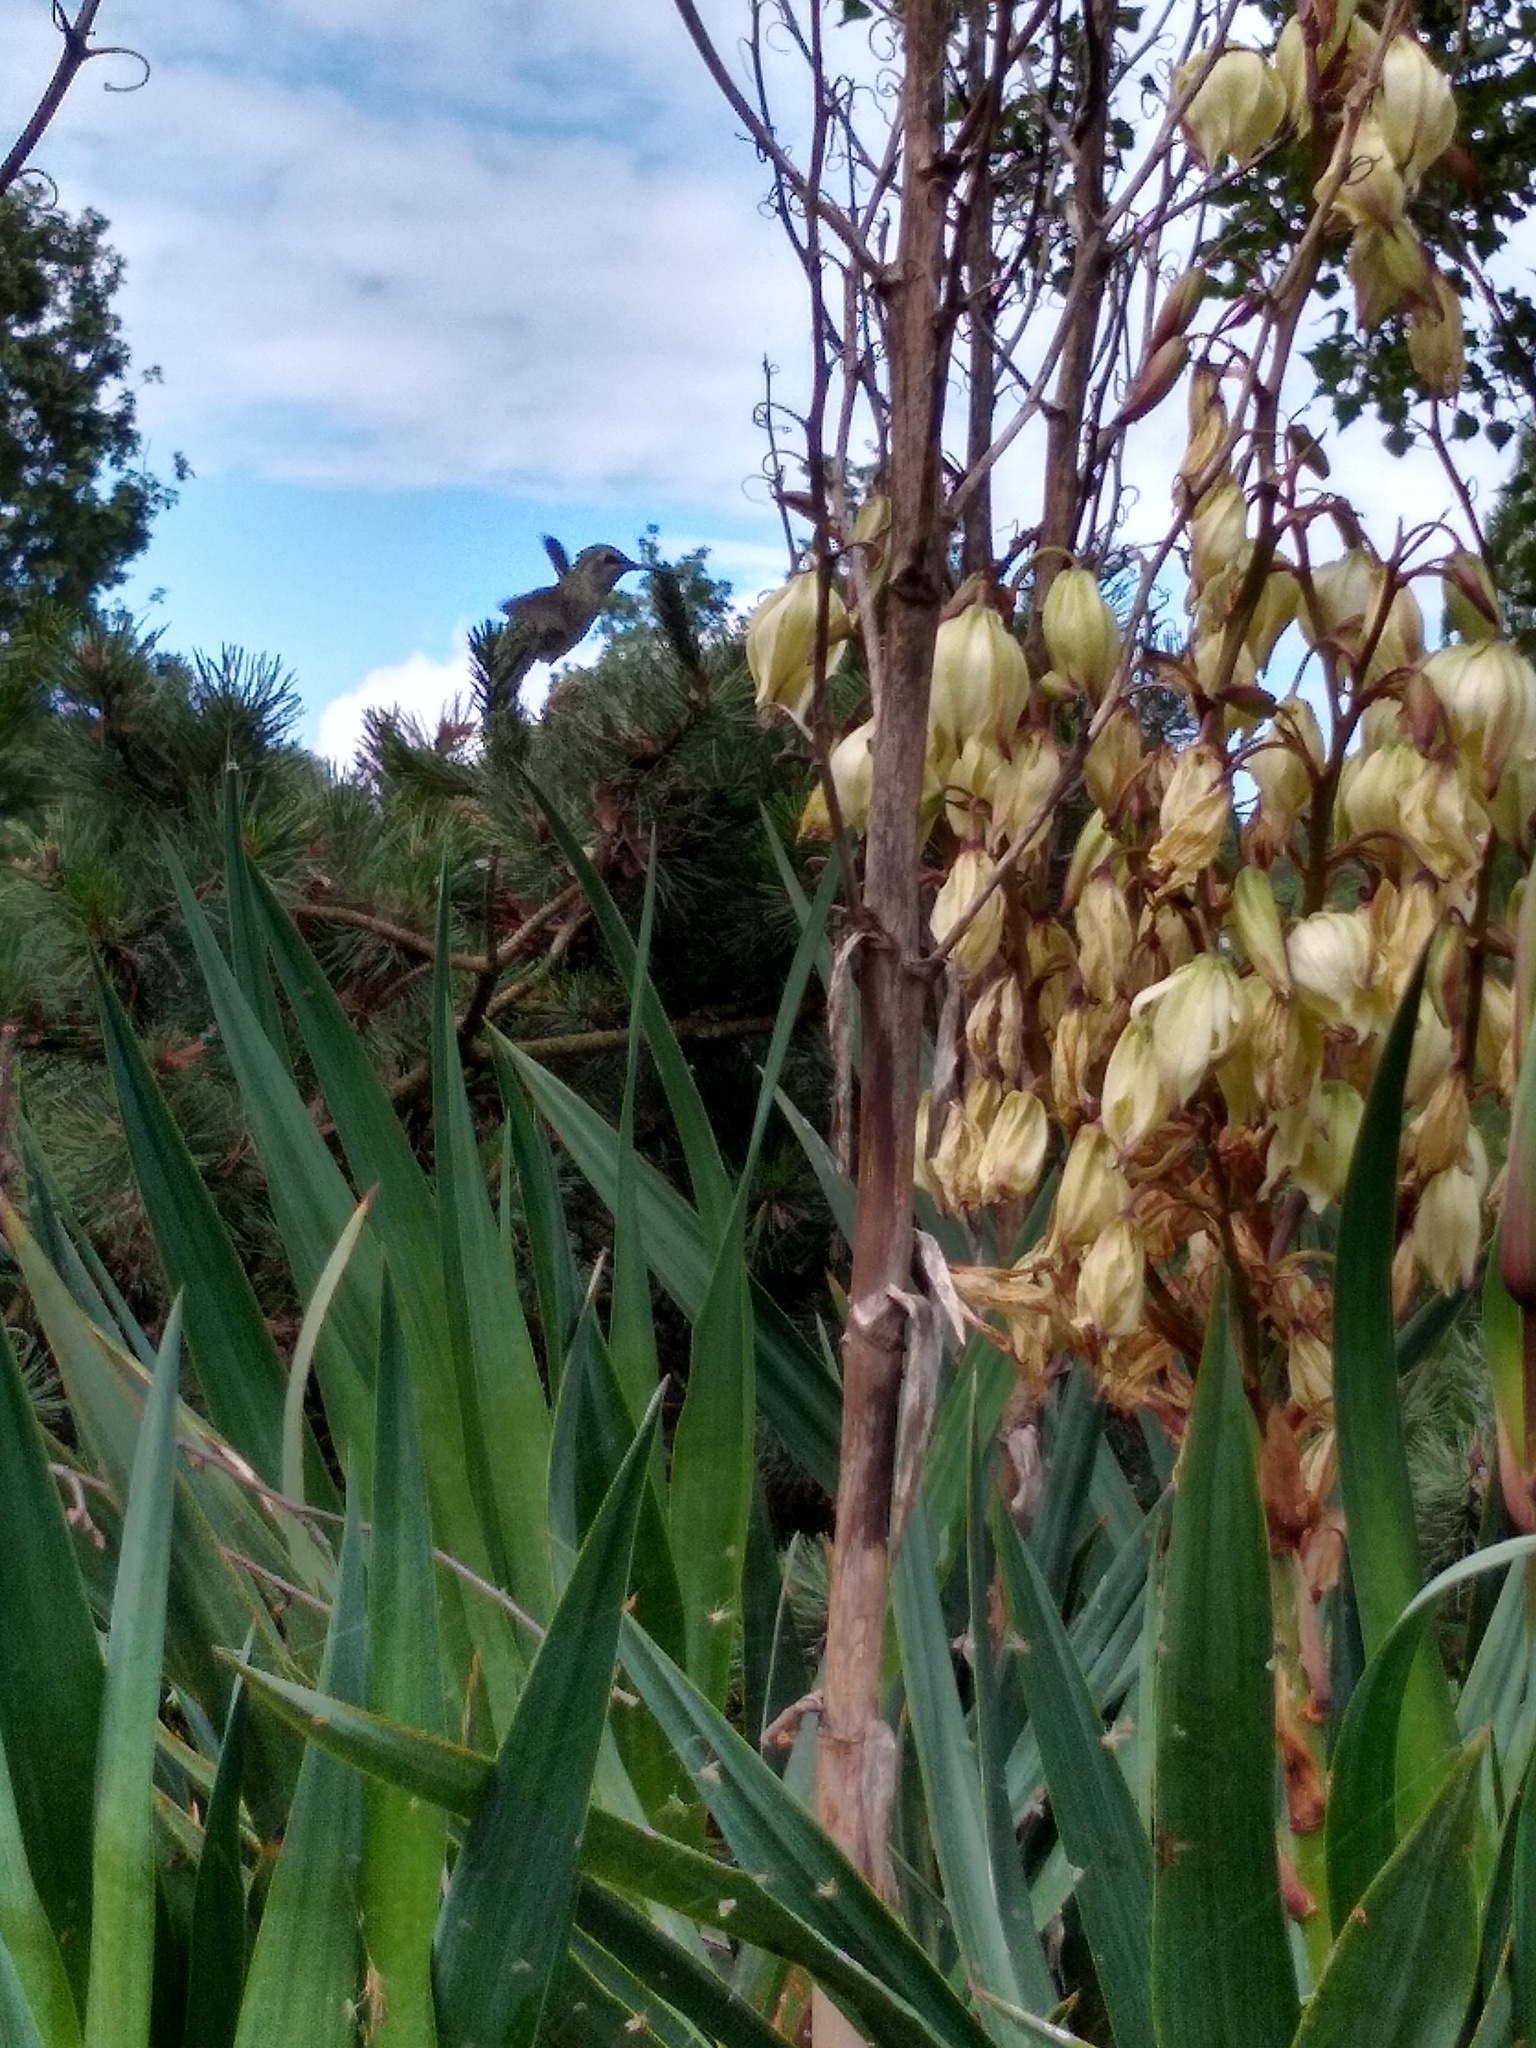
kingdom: Animalia
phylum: Chordata
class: Aves
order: Apodiformes
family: Trochilidae
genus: Calypte
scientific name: Calypte anna
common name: Anna's hummingbird
